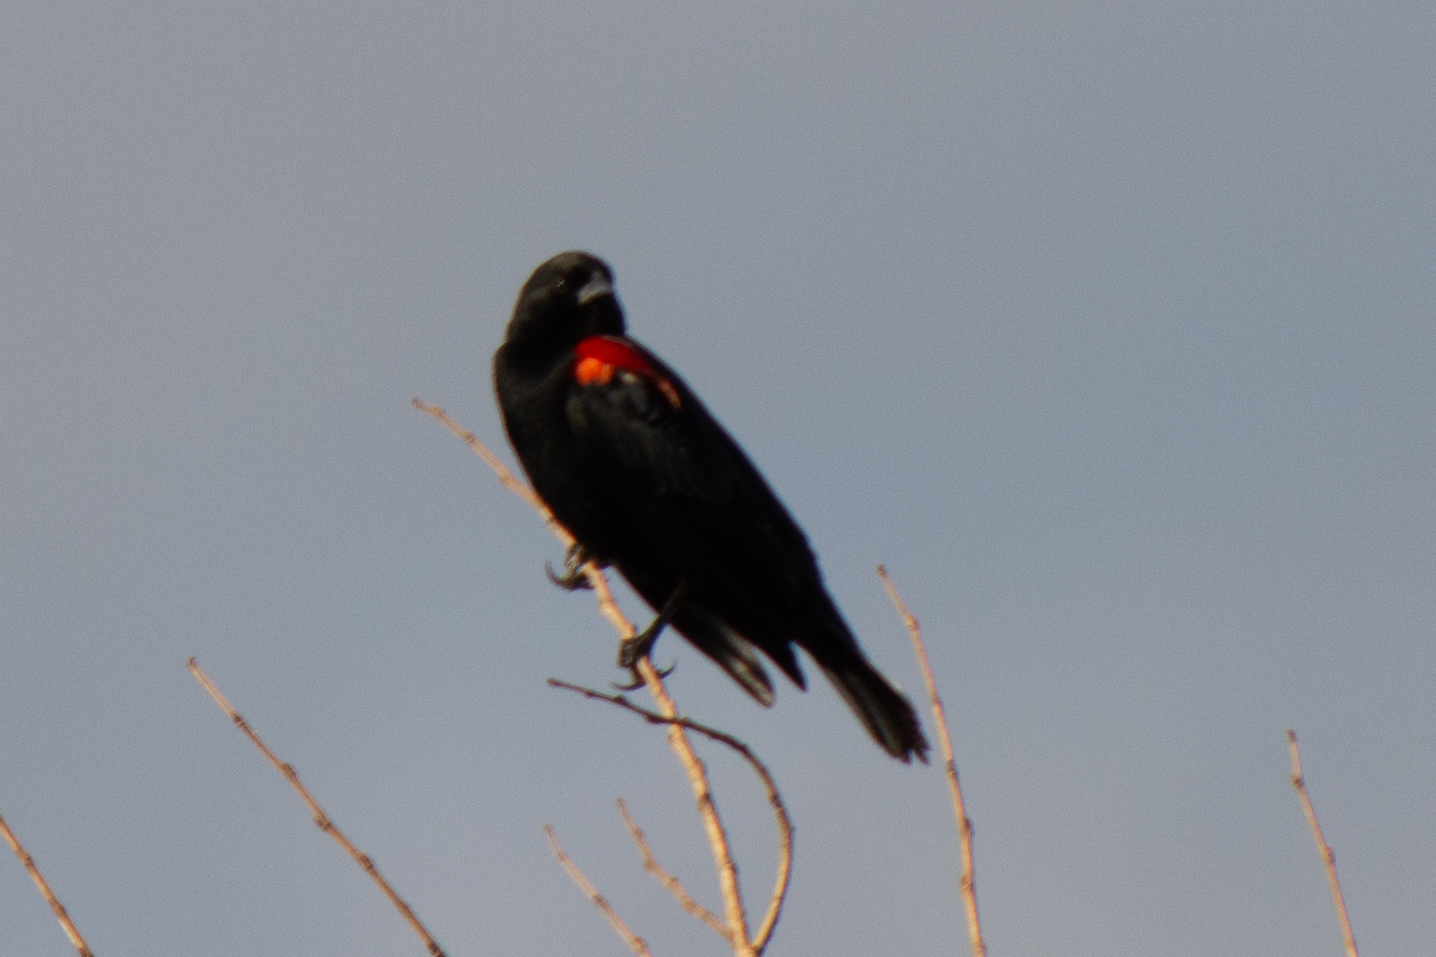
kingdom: Animalia
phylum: Chordata
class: Aves
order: Passeriformes
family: Icteridae
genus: Agelaius
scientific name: Agelaius phoeniceus
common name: Red-winged blackbird
